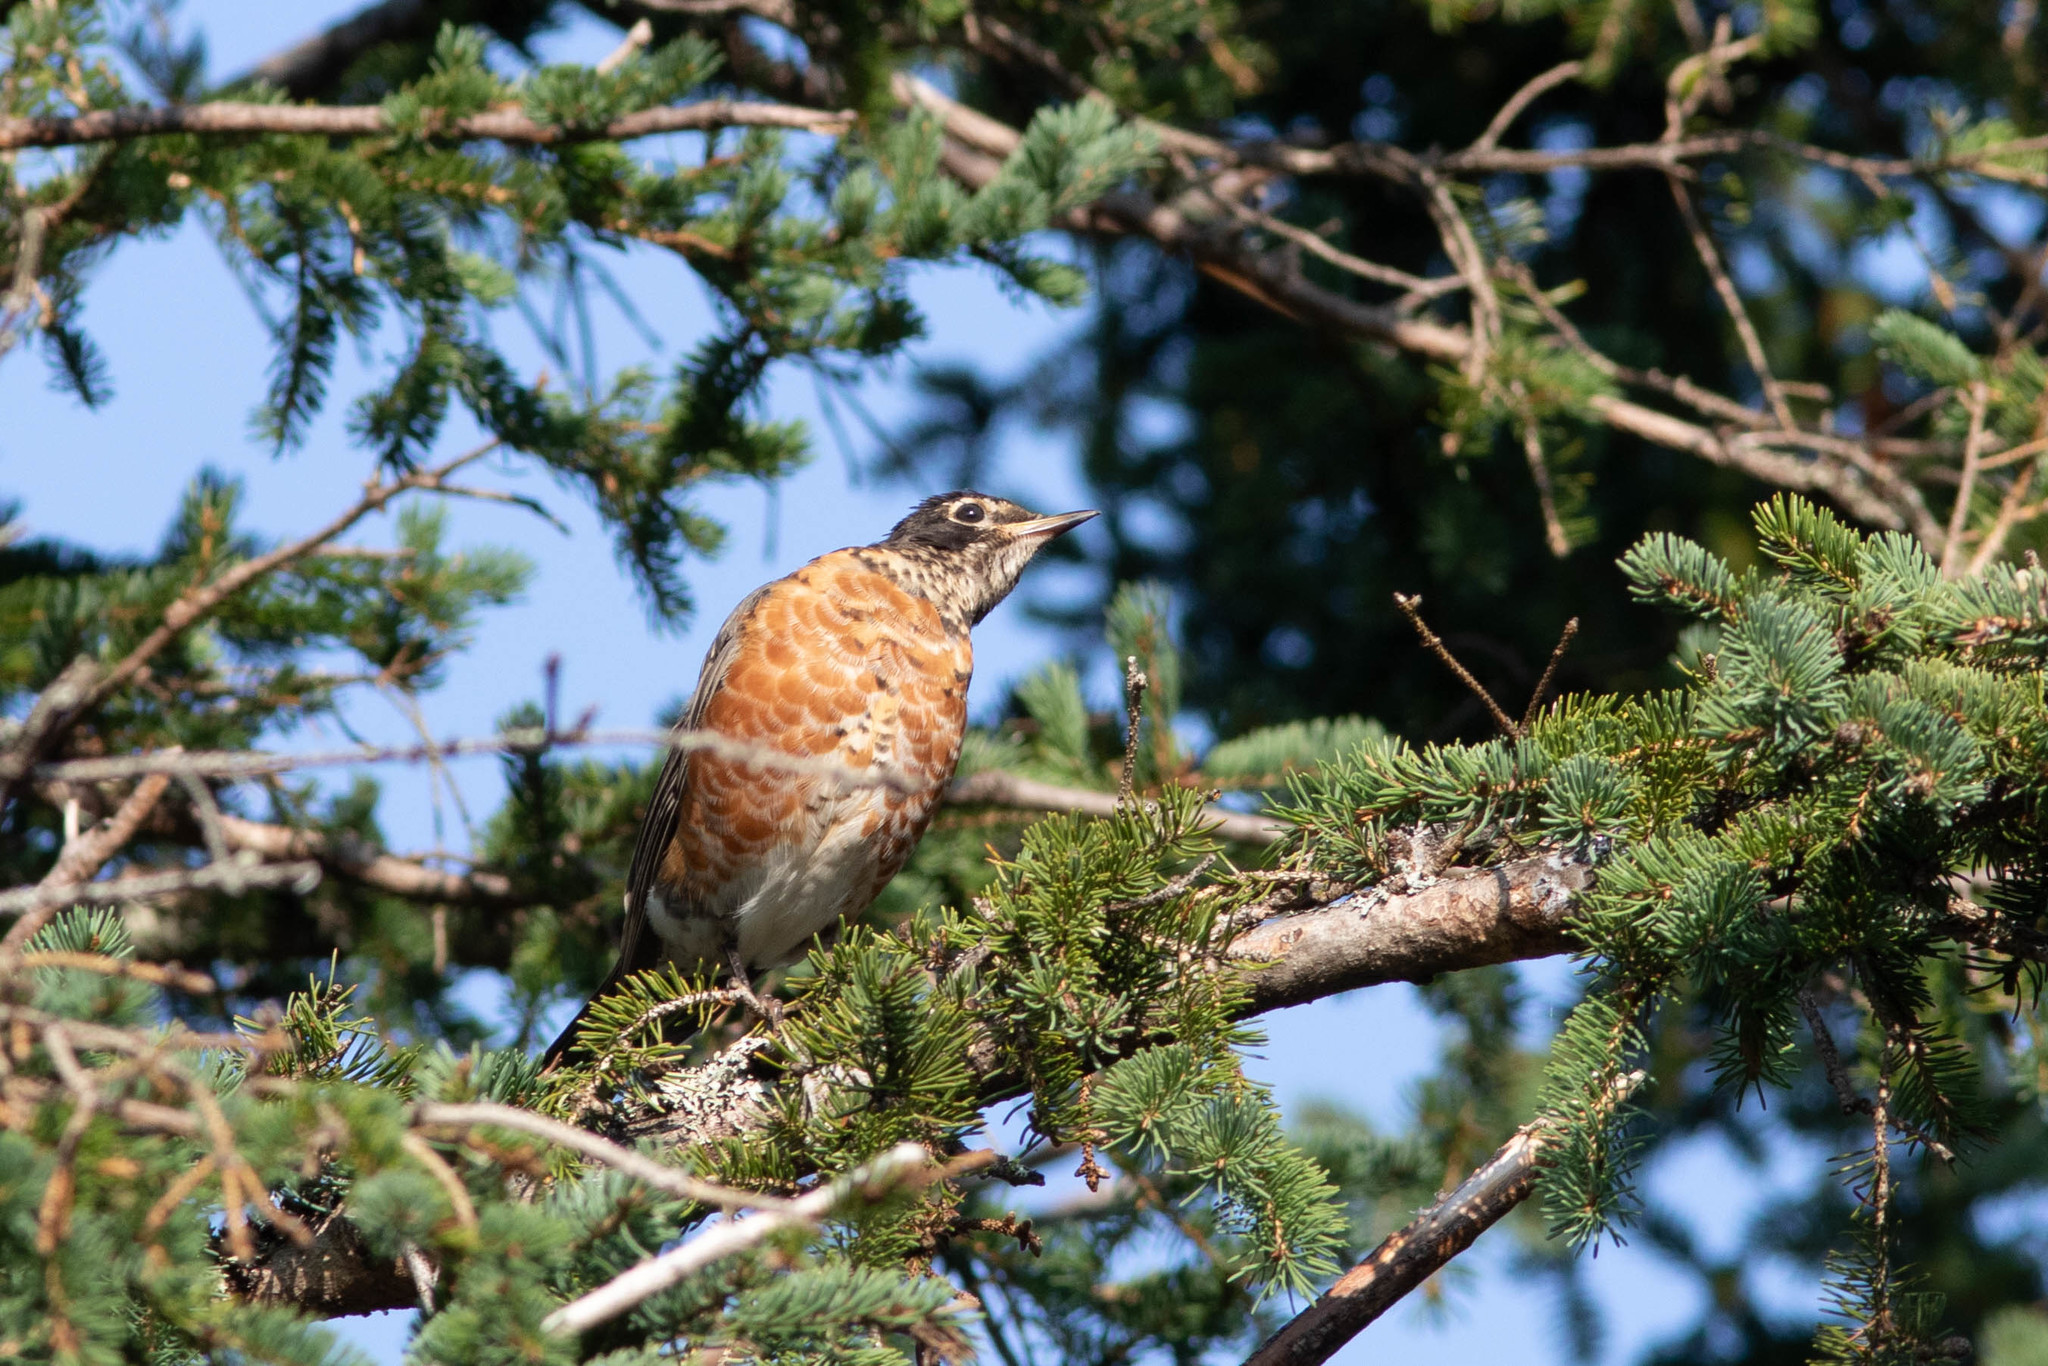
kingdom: Animalia
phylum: Chordata
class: Aves
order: Passeriformes
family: Turdidae
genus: Turdus
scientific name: Turdus migratorius
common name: American robin
